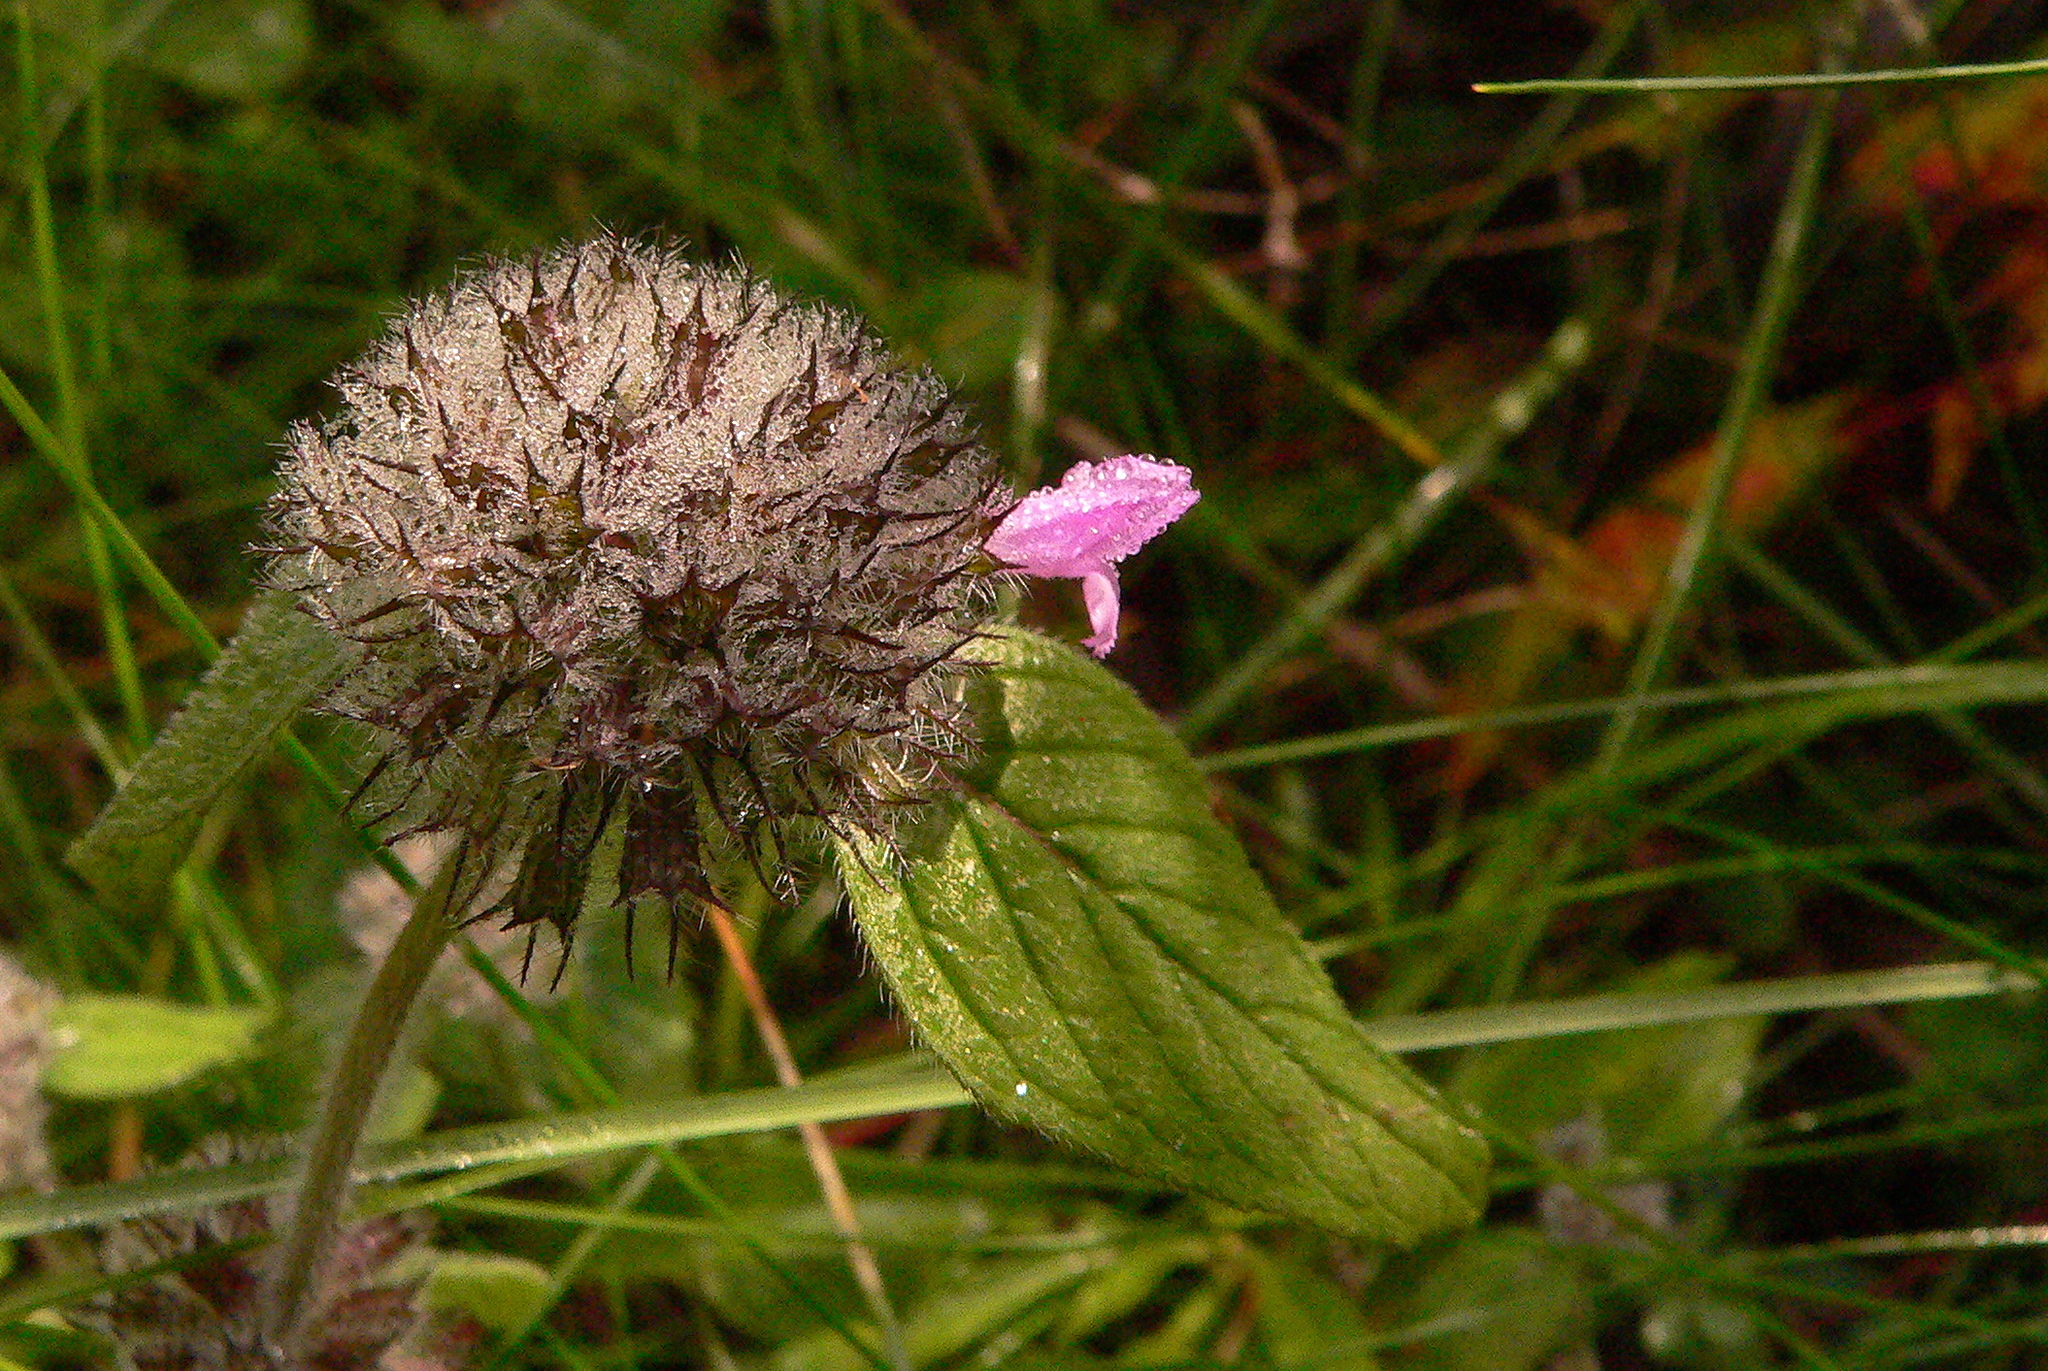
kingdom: Plantae
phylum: Tracheophyta
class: Magnoliopsida
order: Lamiales
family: Lamiaceae
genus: Clinopodium
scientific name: Clinopodium vulgare
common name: Wild basil
